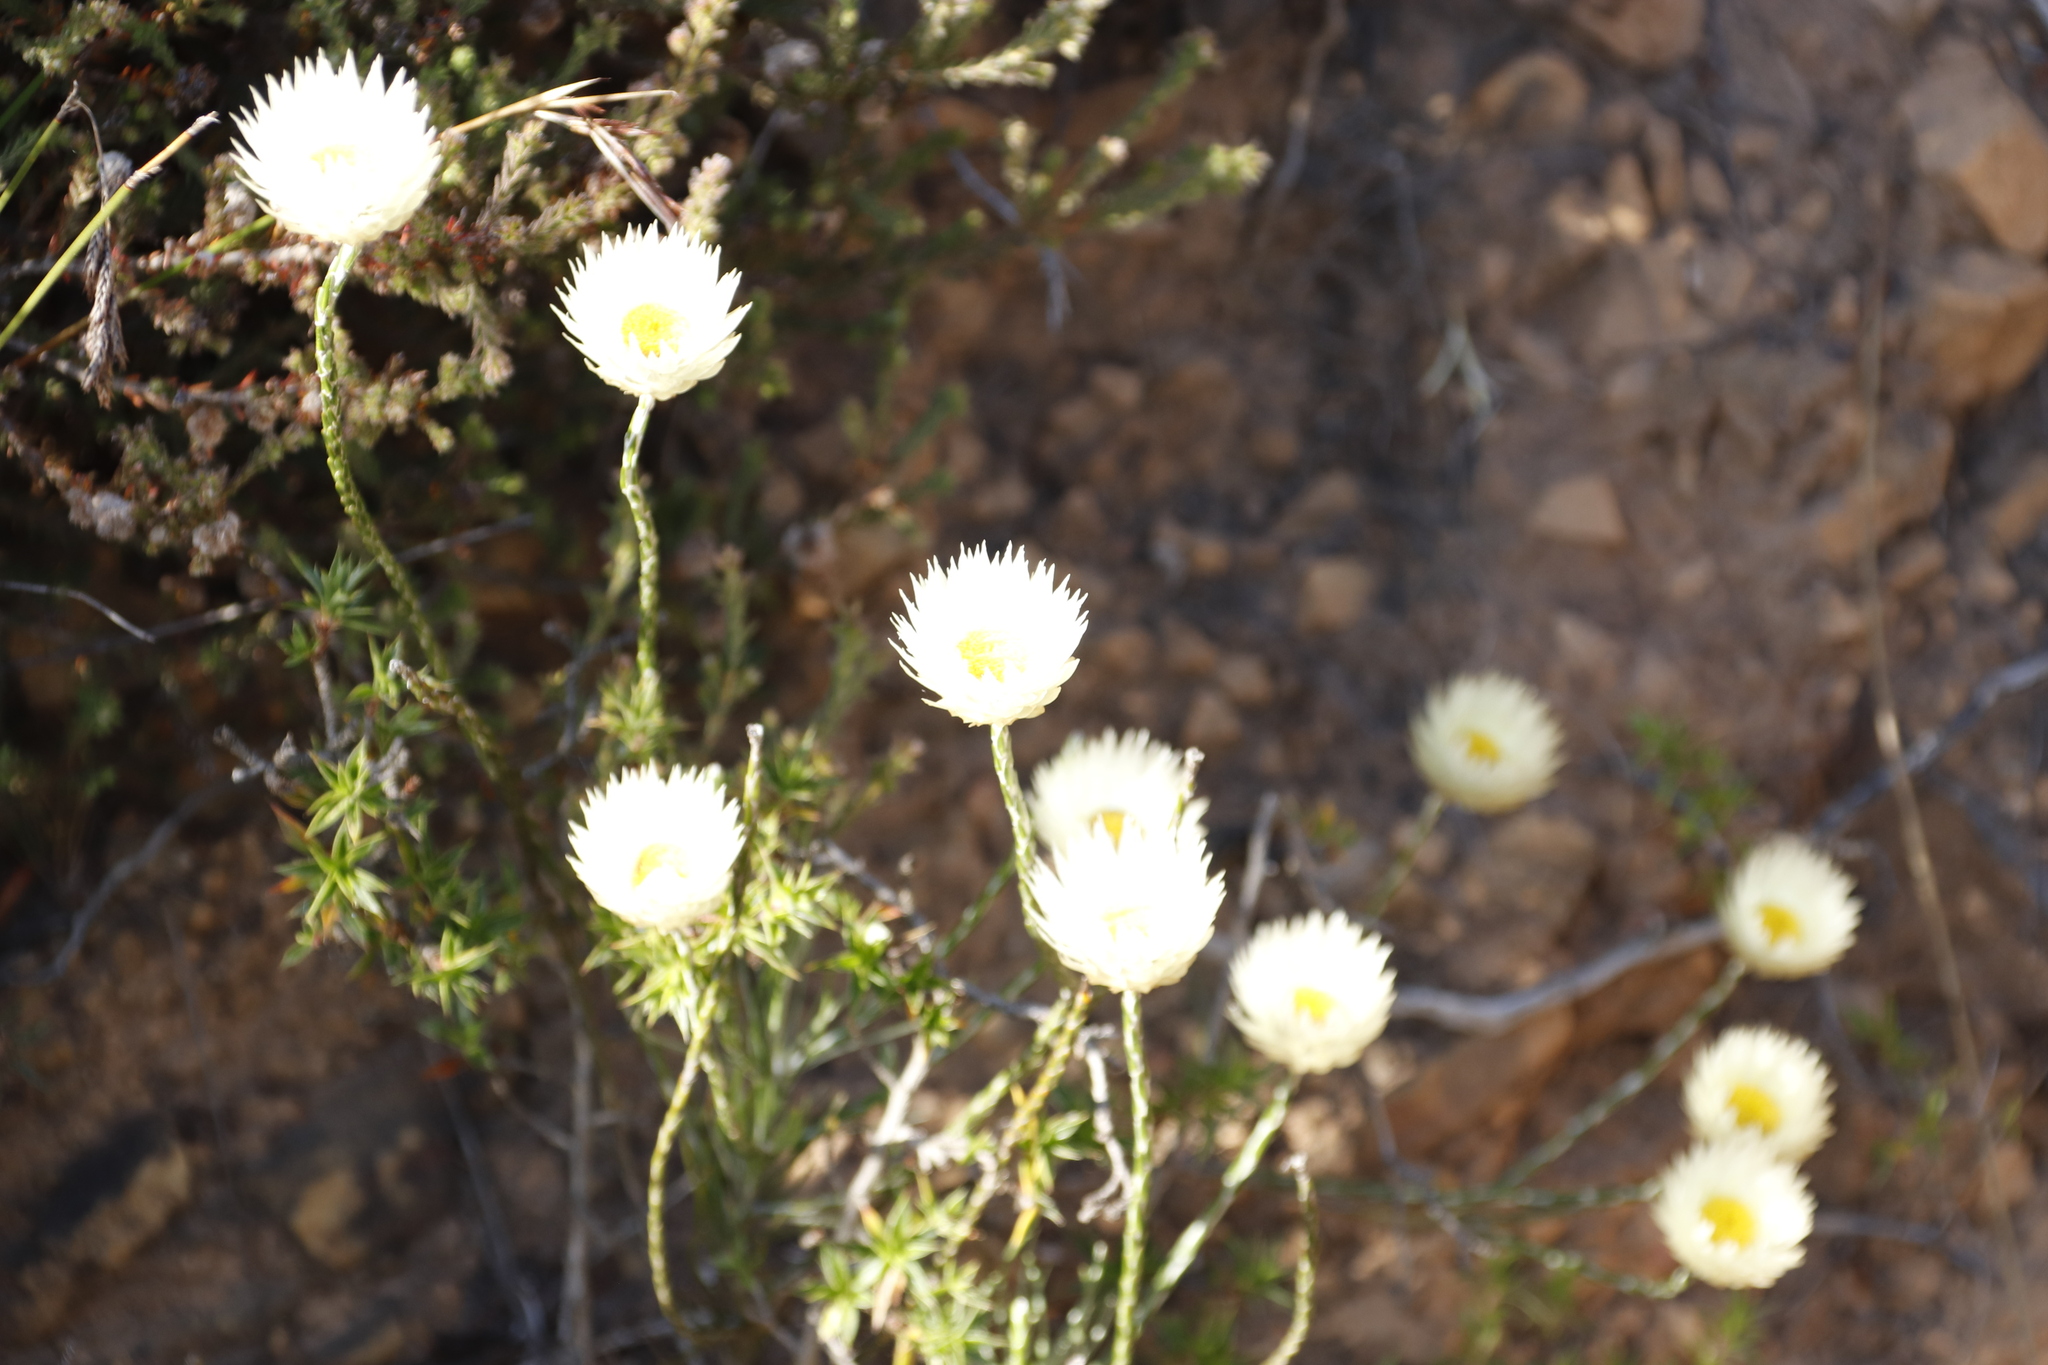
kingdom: Plantae
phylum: Tracheophyta
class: Magnoliopsida
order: Asterales
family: Asteraceae
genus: Edmondia
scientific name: Edmondia sesamoides
